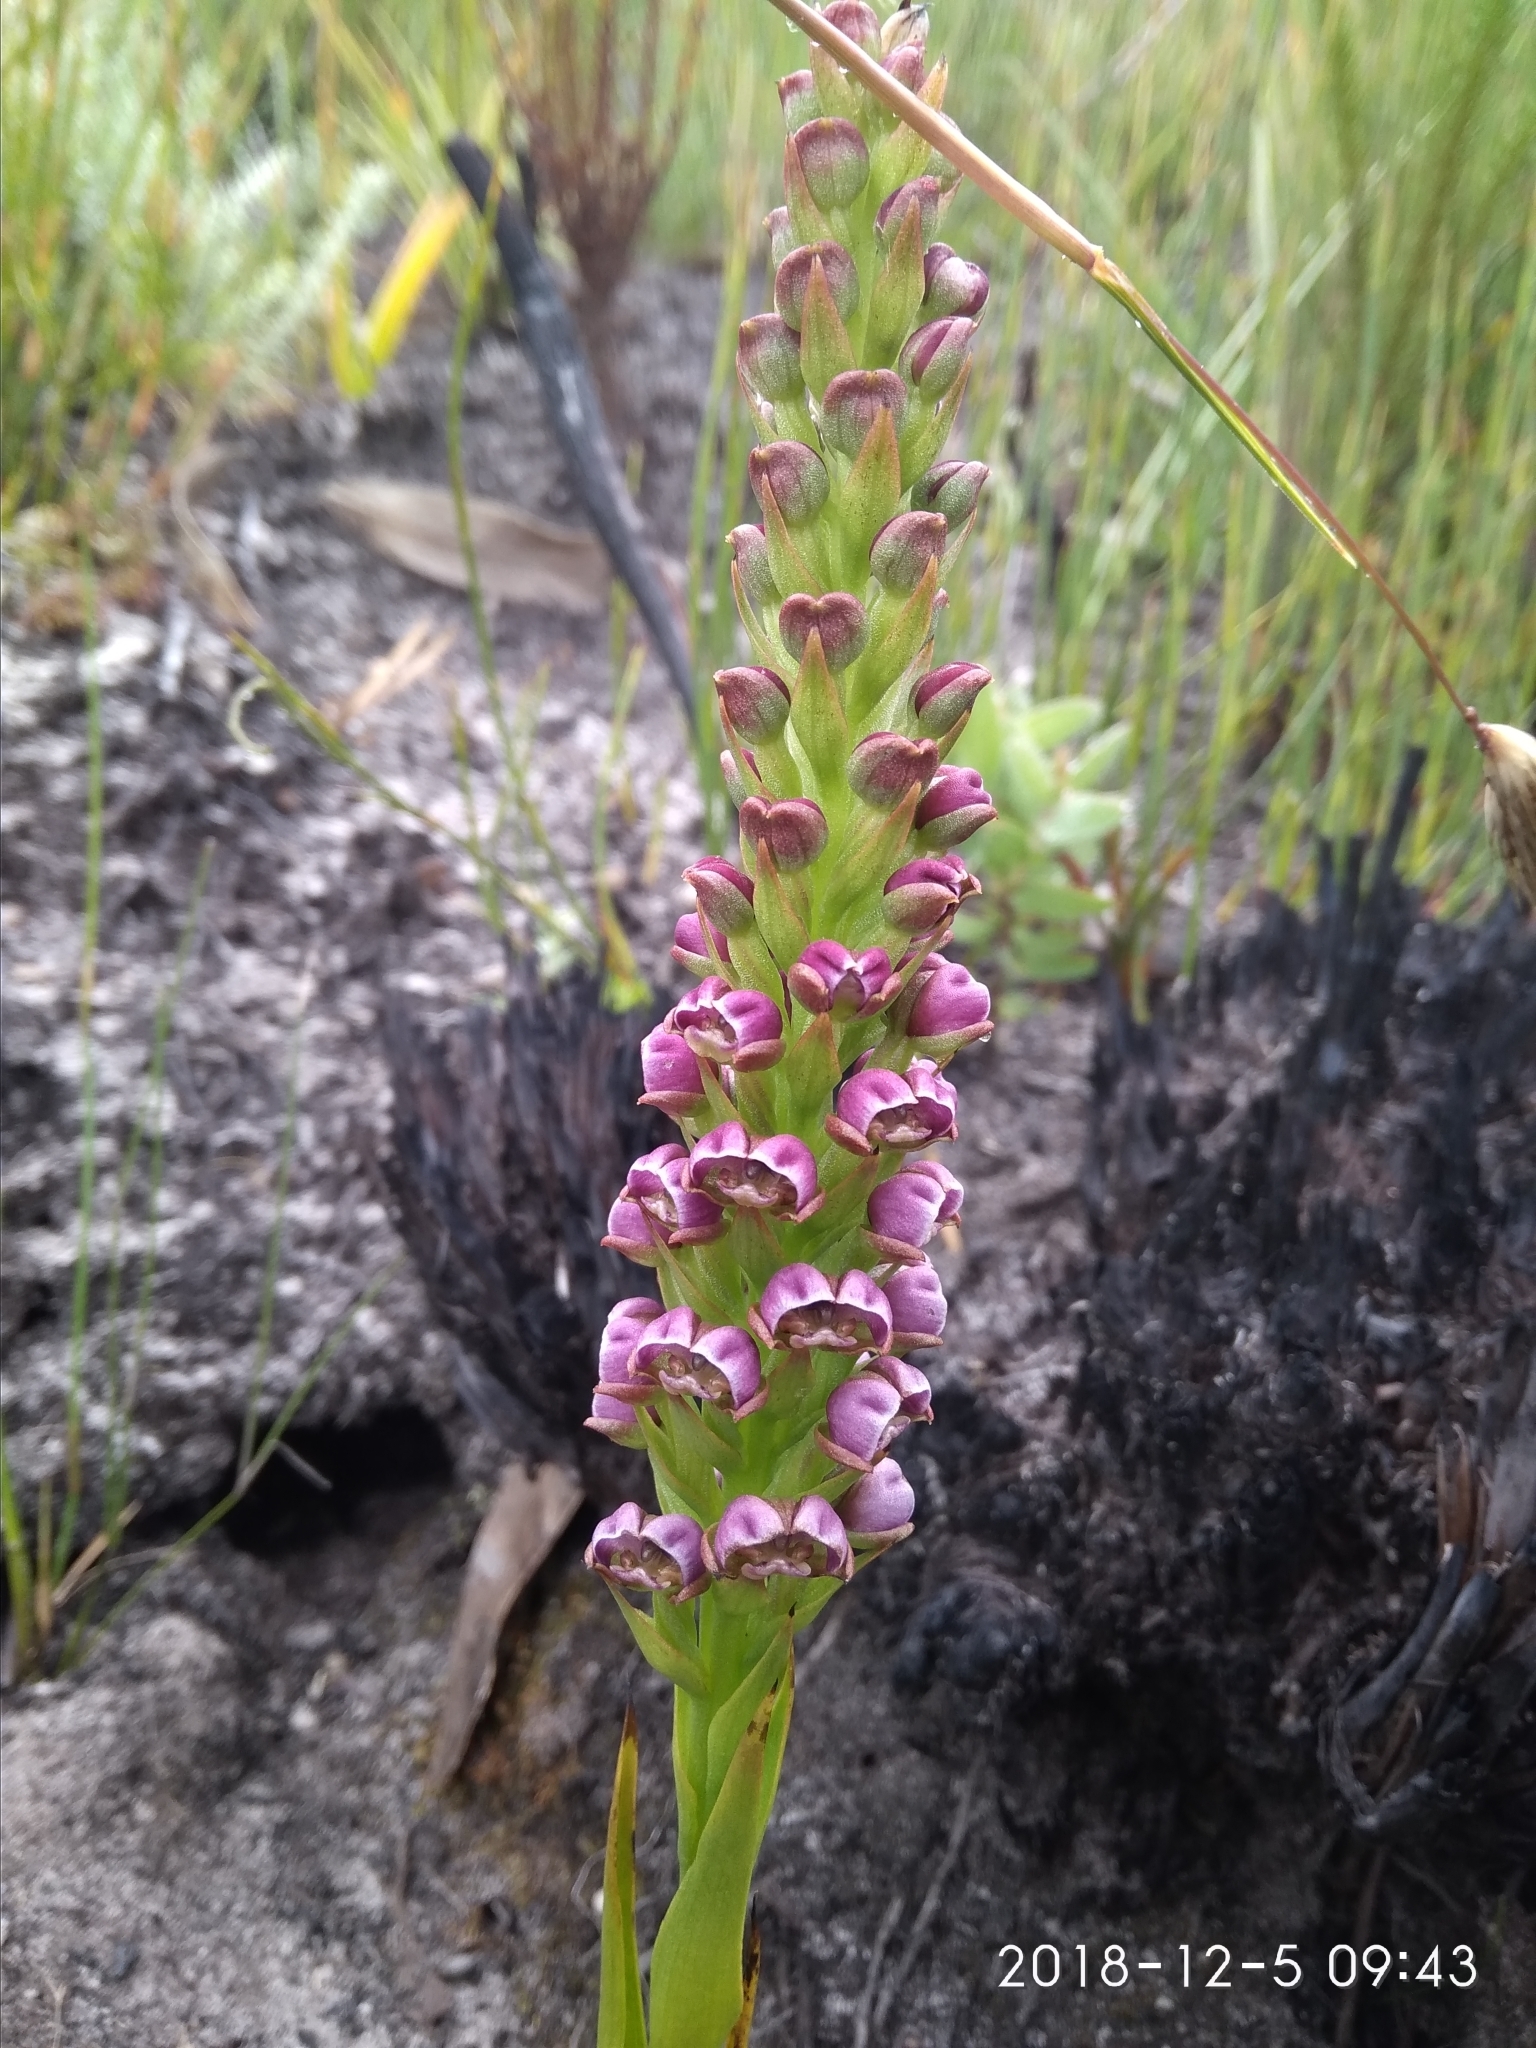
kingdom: Plantae
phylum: Tracheophyta
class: Liliopsida
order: Asparagales
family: Orchidaceae
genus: Evotella
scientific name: Evotella carnosa
